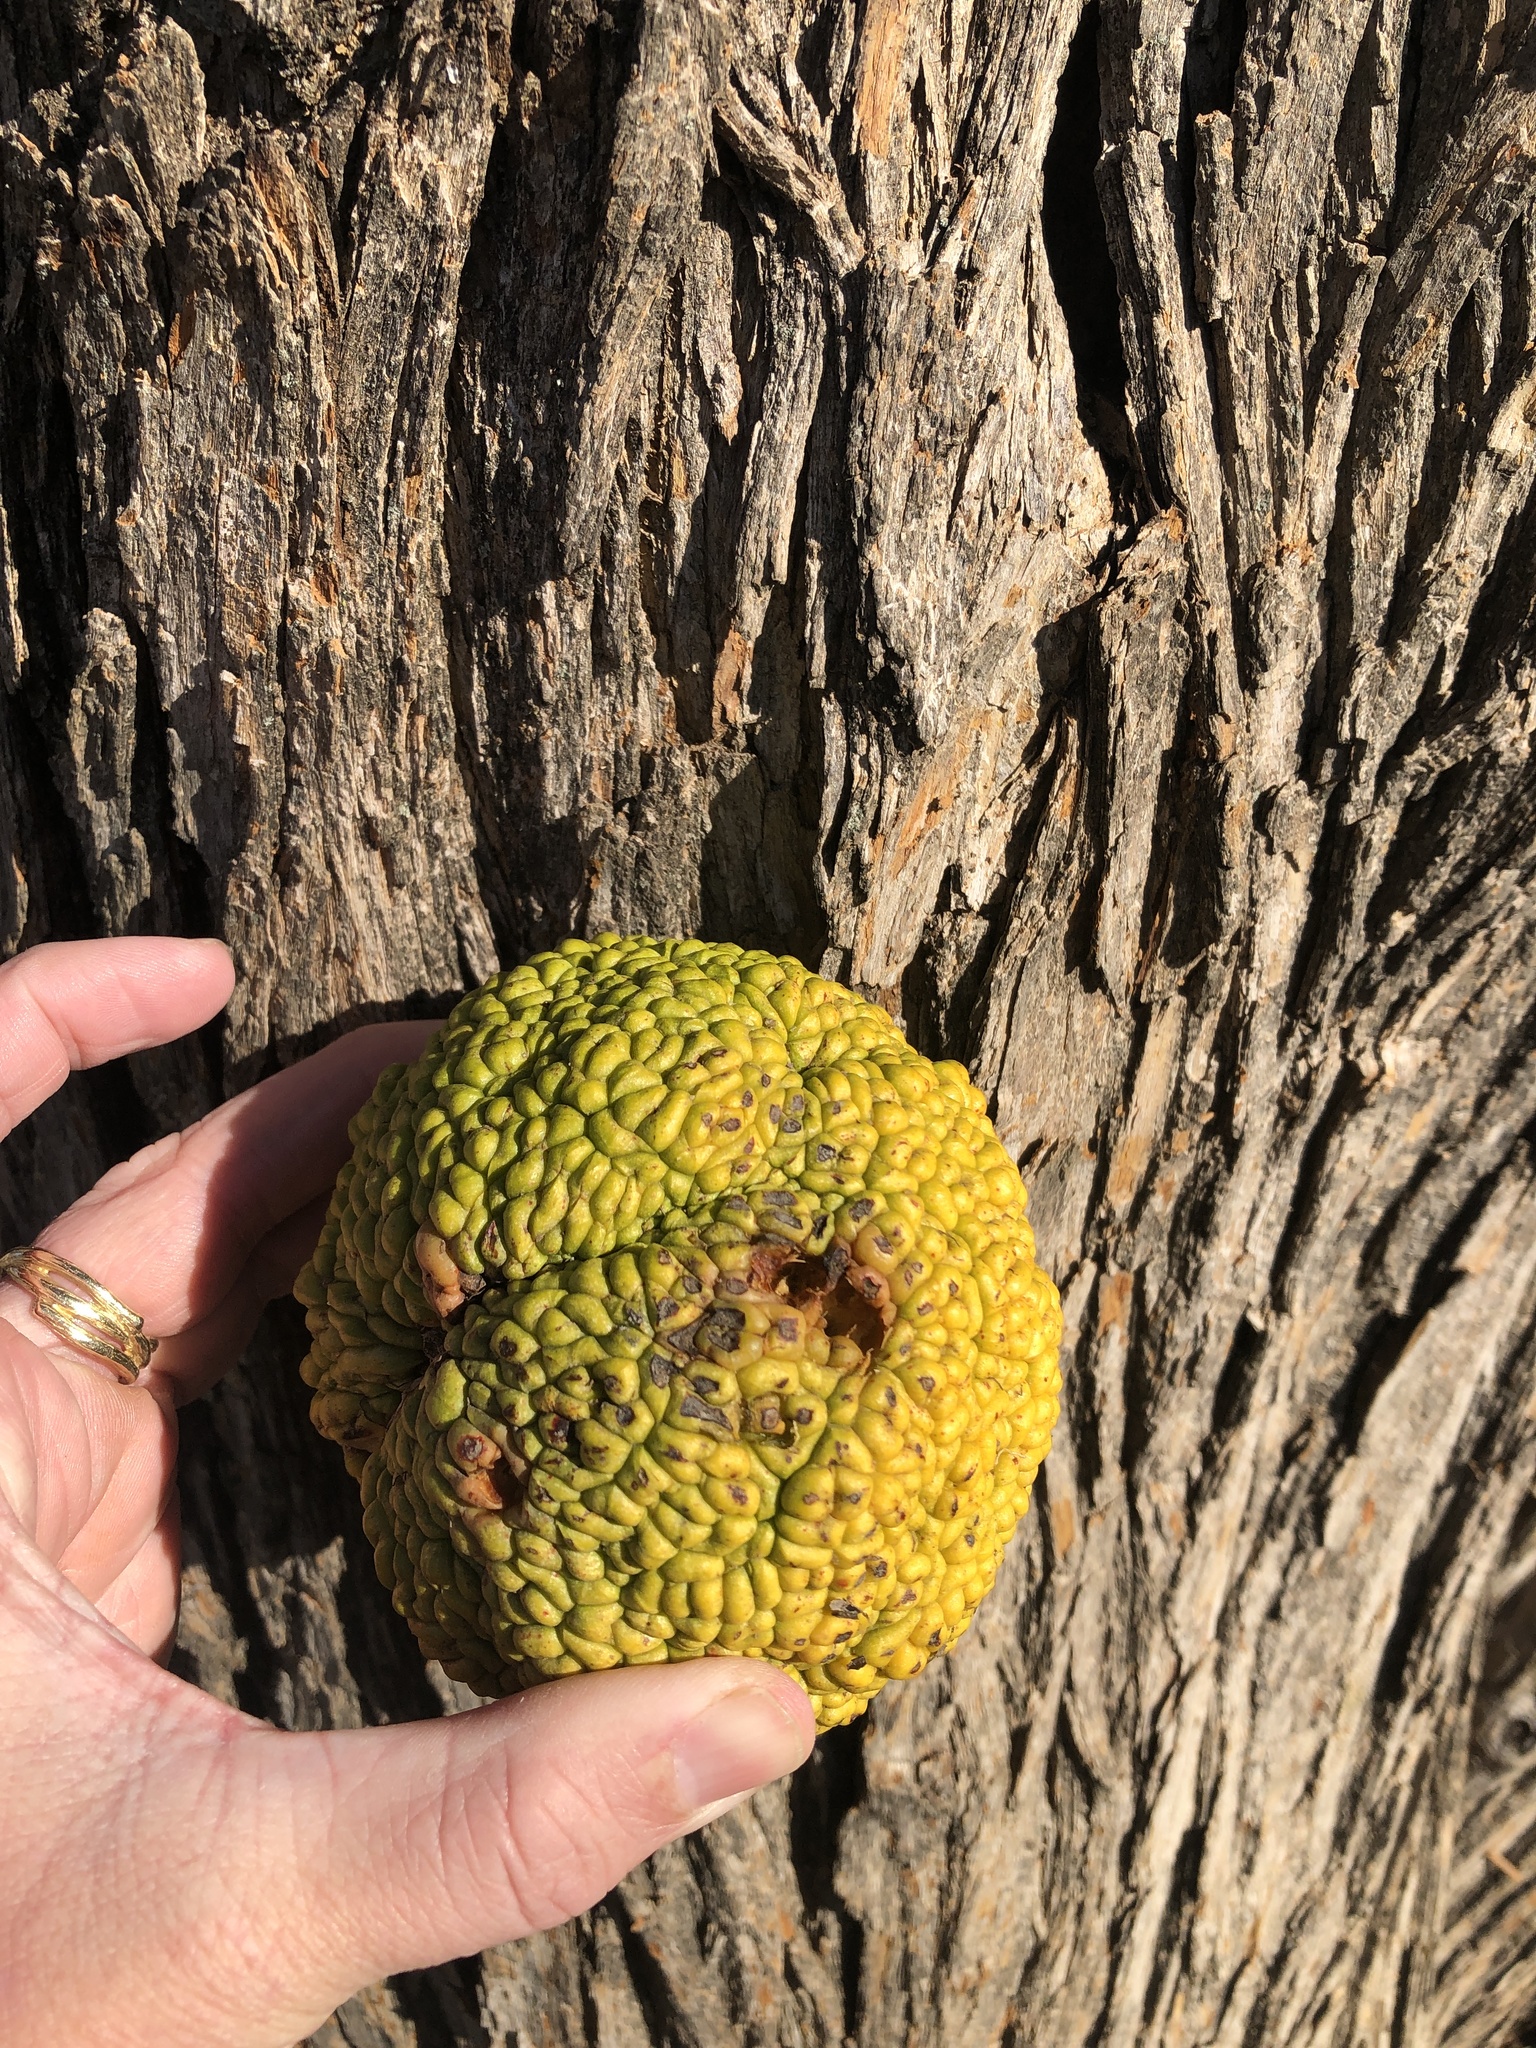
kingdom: Plantae
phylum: Tracheophyta
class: Magnoliopsida
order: Rosales
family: Moraceae
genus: Maclura
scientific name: Maclura pomifera
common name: Osage-orange
